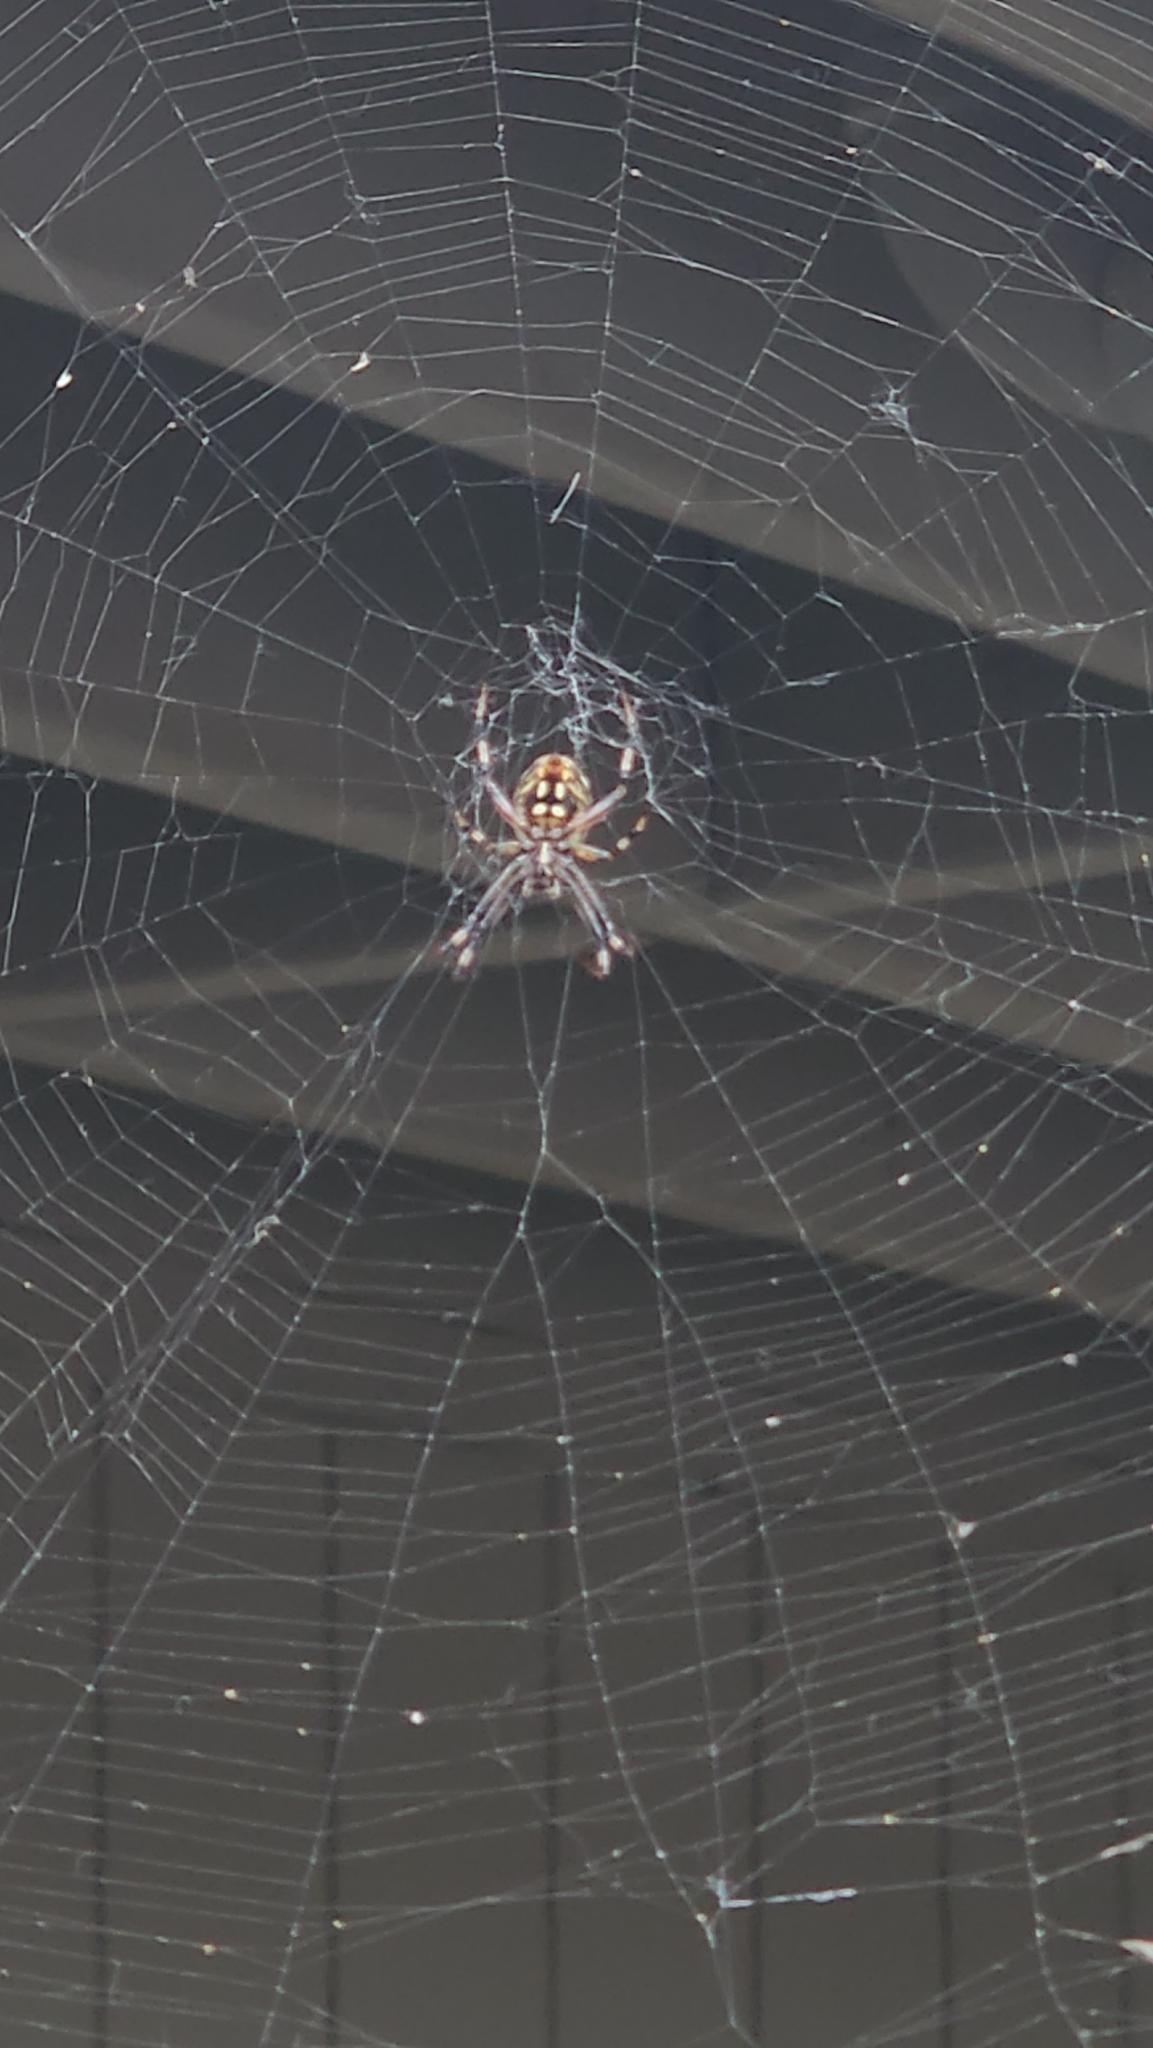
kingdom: Animalia
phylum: Arthropoda
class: Arachnida
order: Araneae
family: Araneidae
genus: Neoscona
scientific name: Neoscona oaxacensis
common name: Orb weavers
